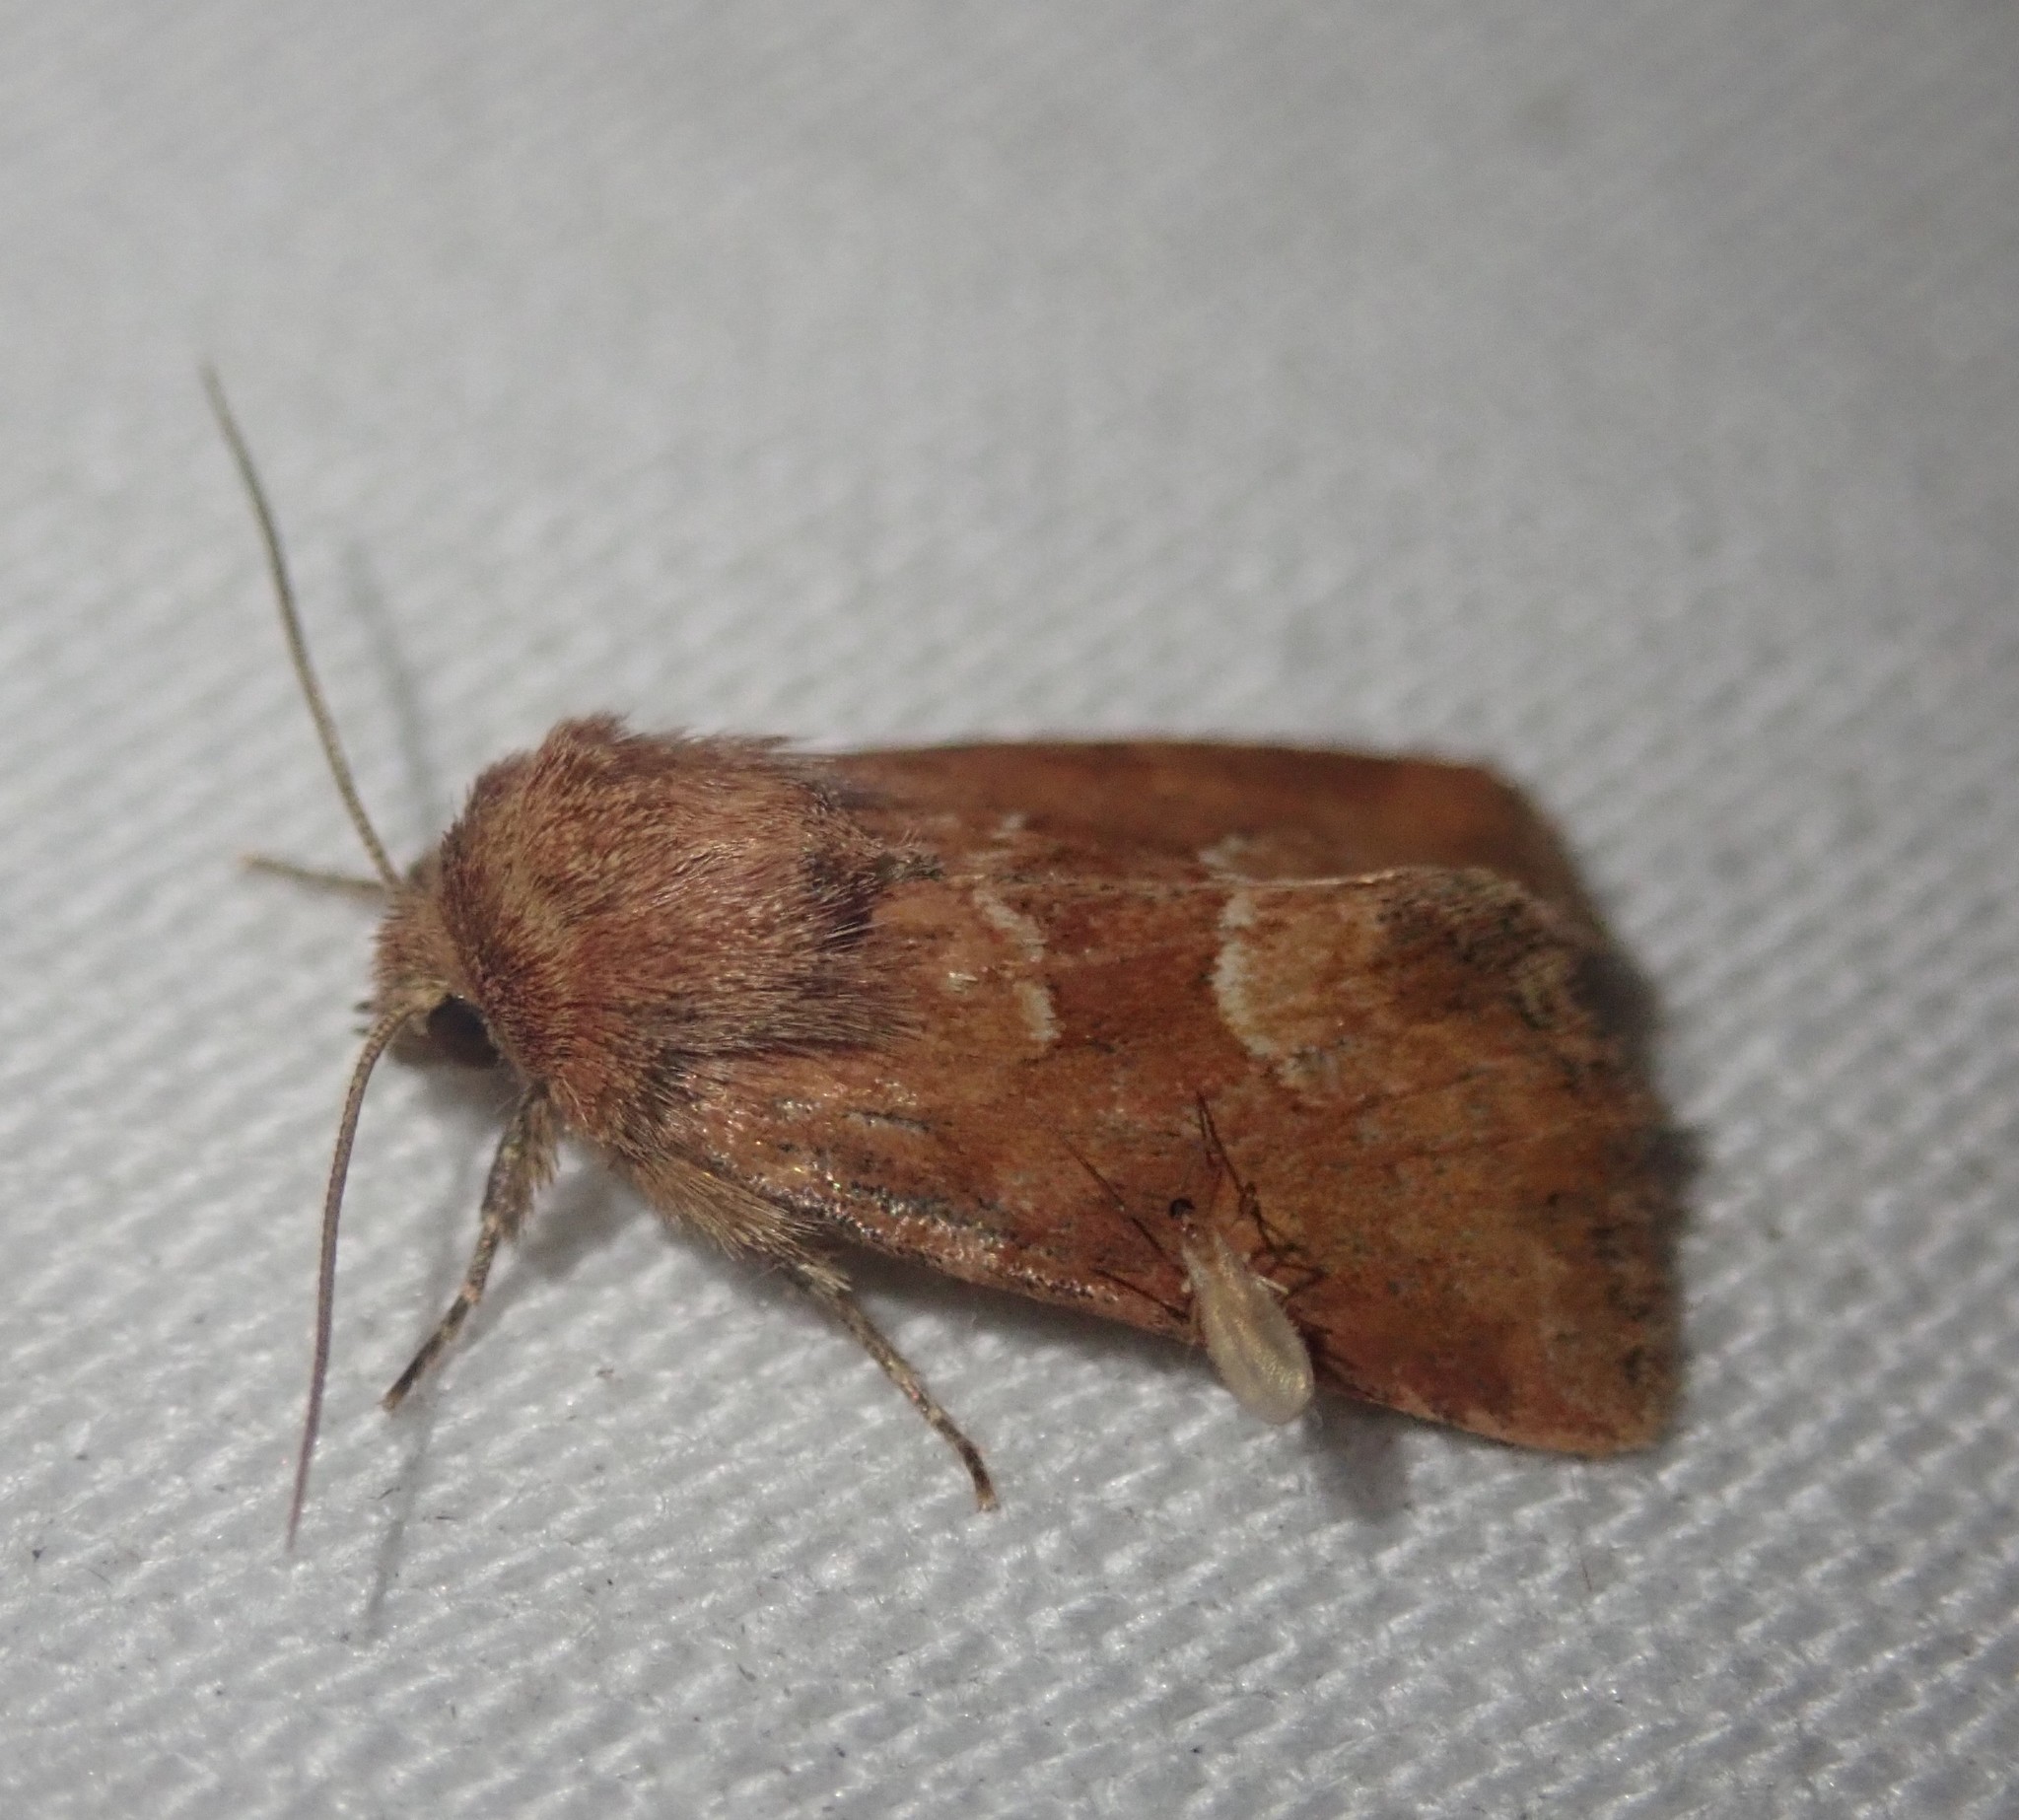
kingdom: Animalia
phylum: Arthropoda
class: Insecta
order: Lepidoptera
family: Noctuidae
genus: Oligia
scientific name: Oligia fasciuncula
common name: Middle-barred minor
